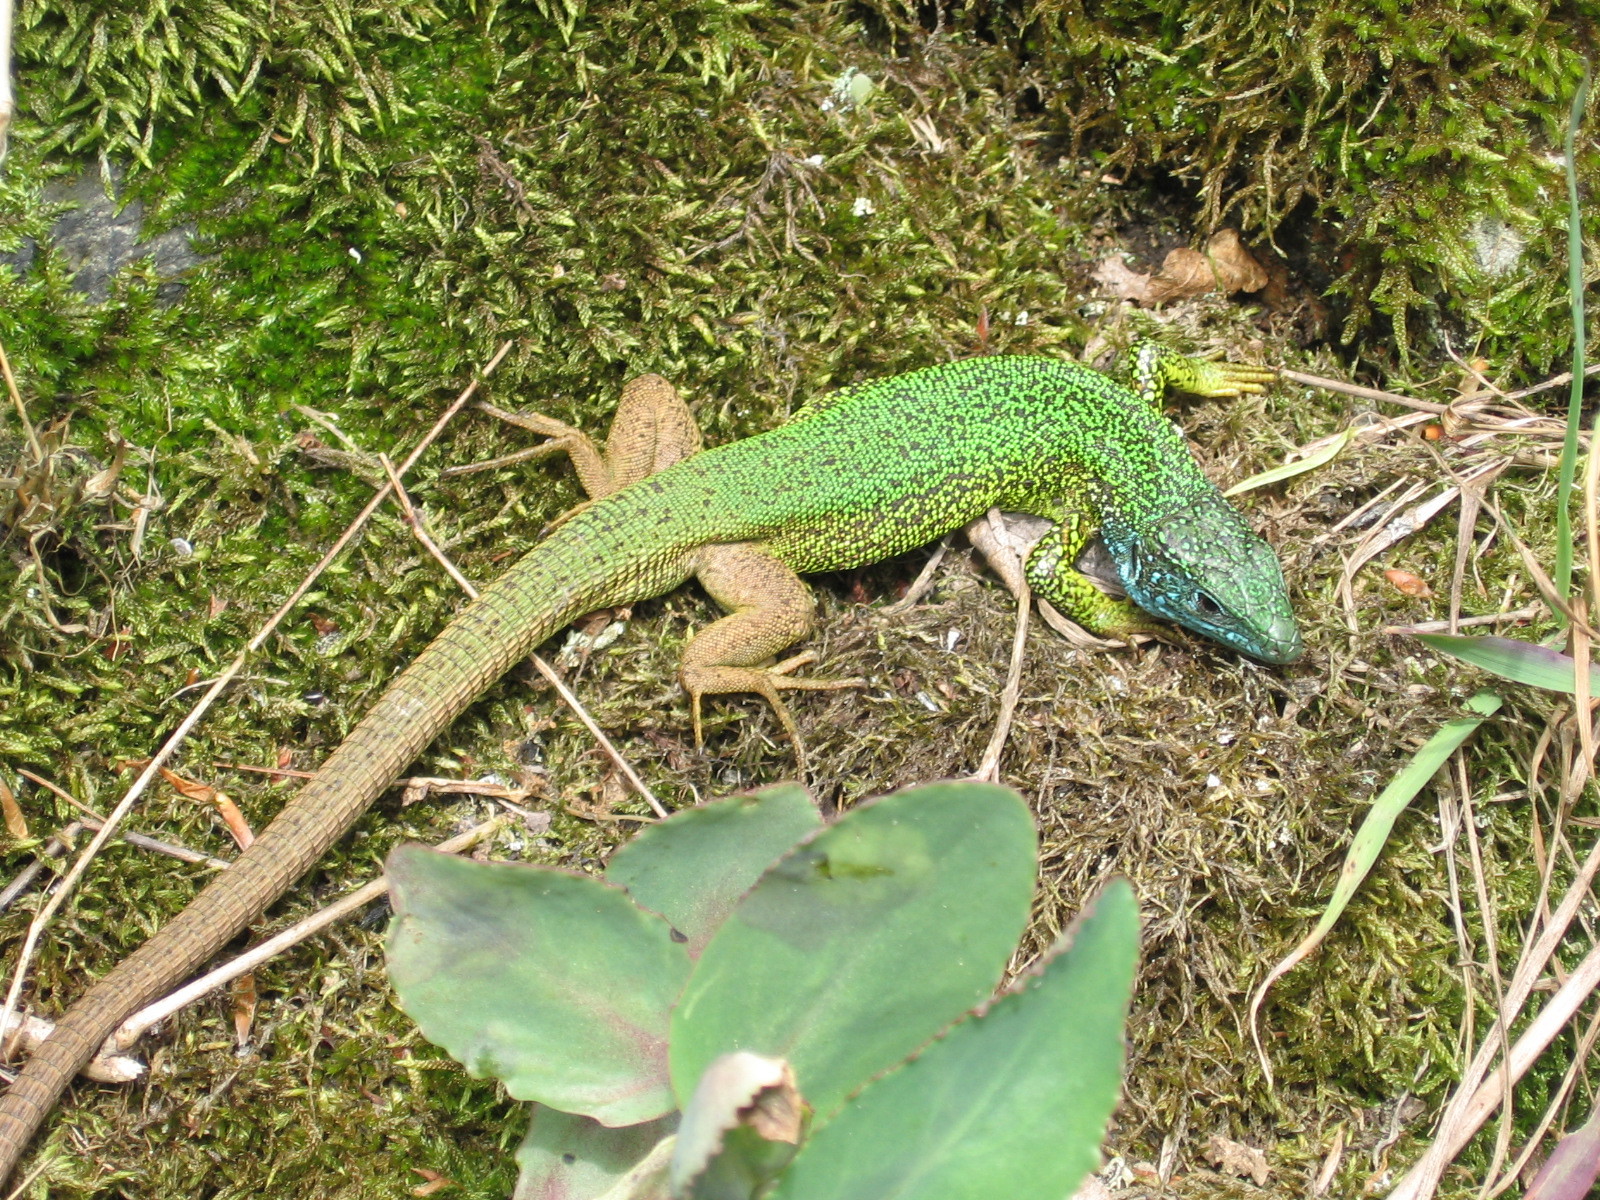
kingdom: Animalia
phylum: Chordata
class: Squamata
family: Lacertidae
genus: Lacerta
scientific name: Lacerta viridis
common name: European green lizard
